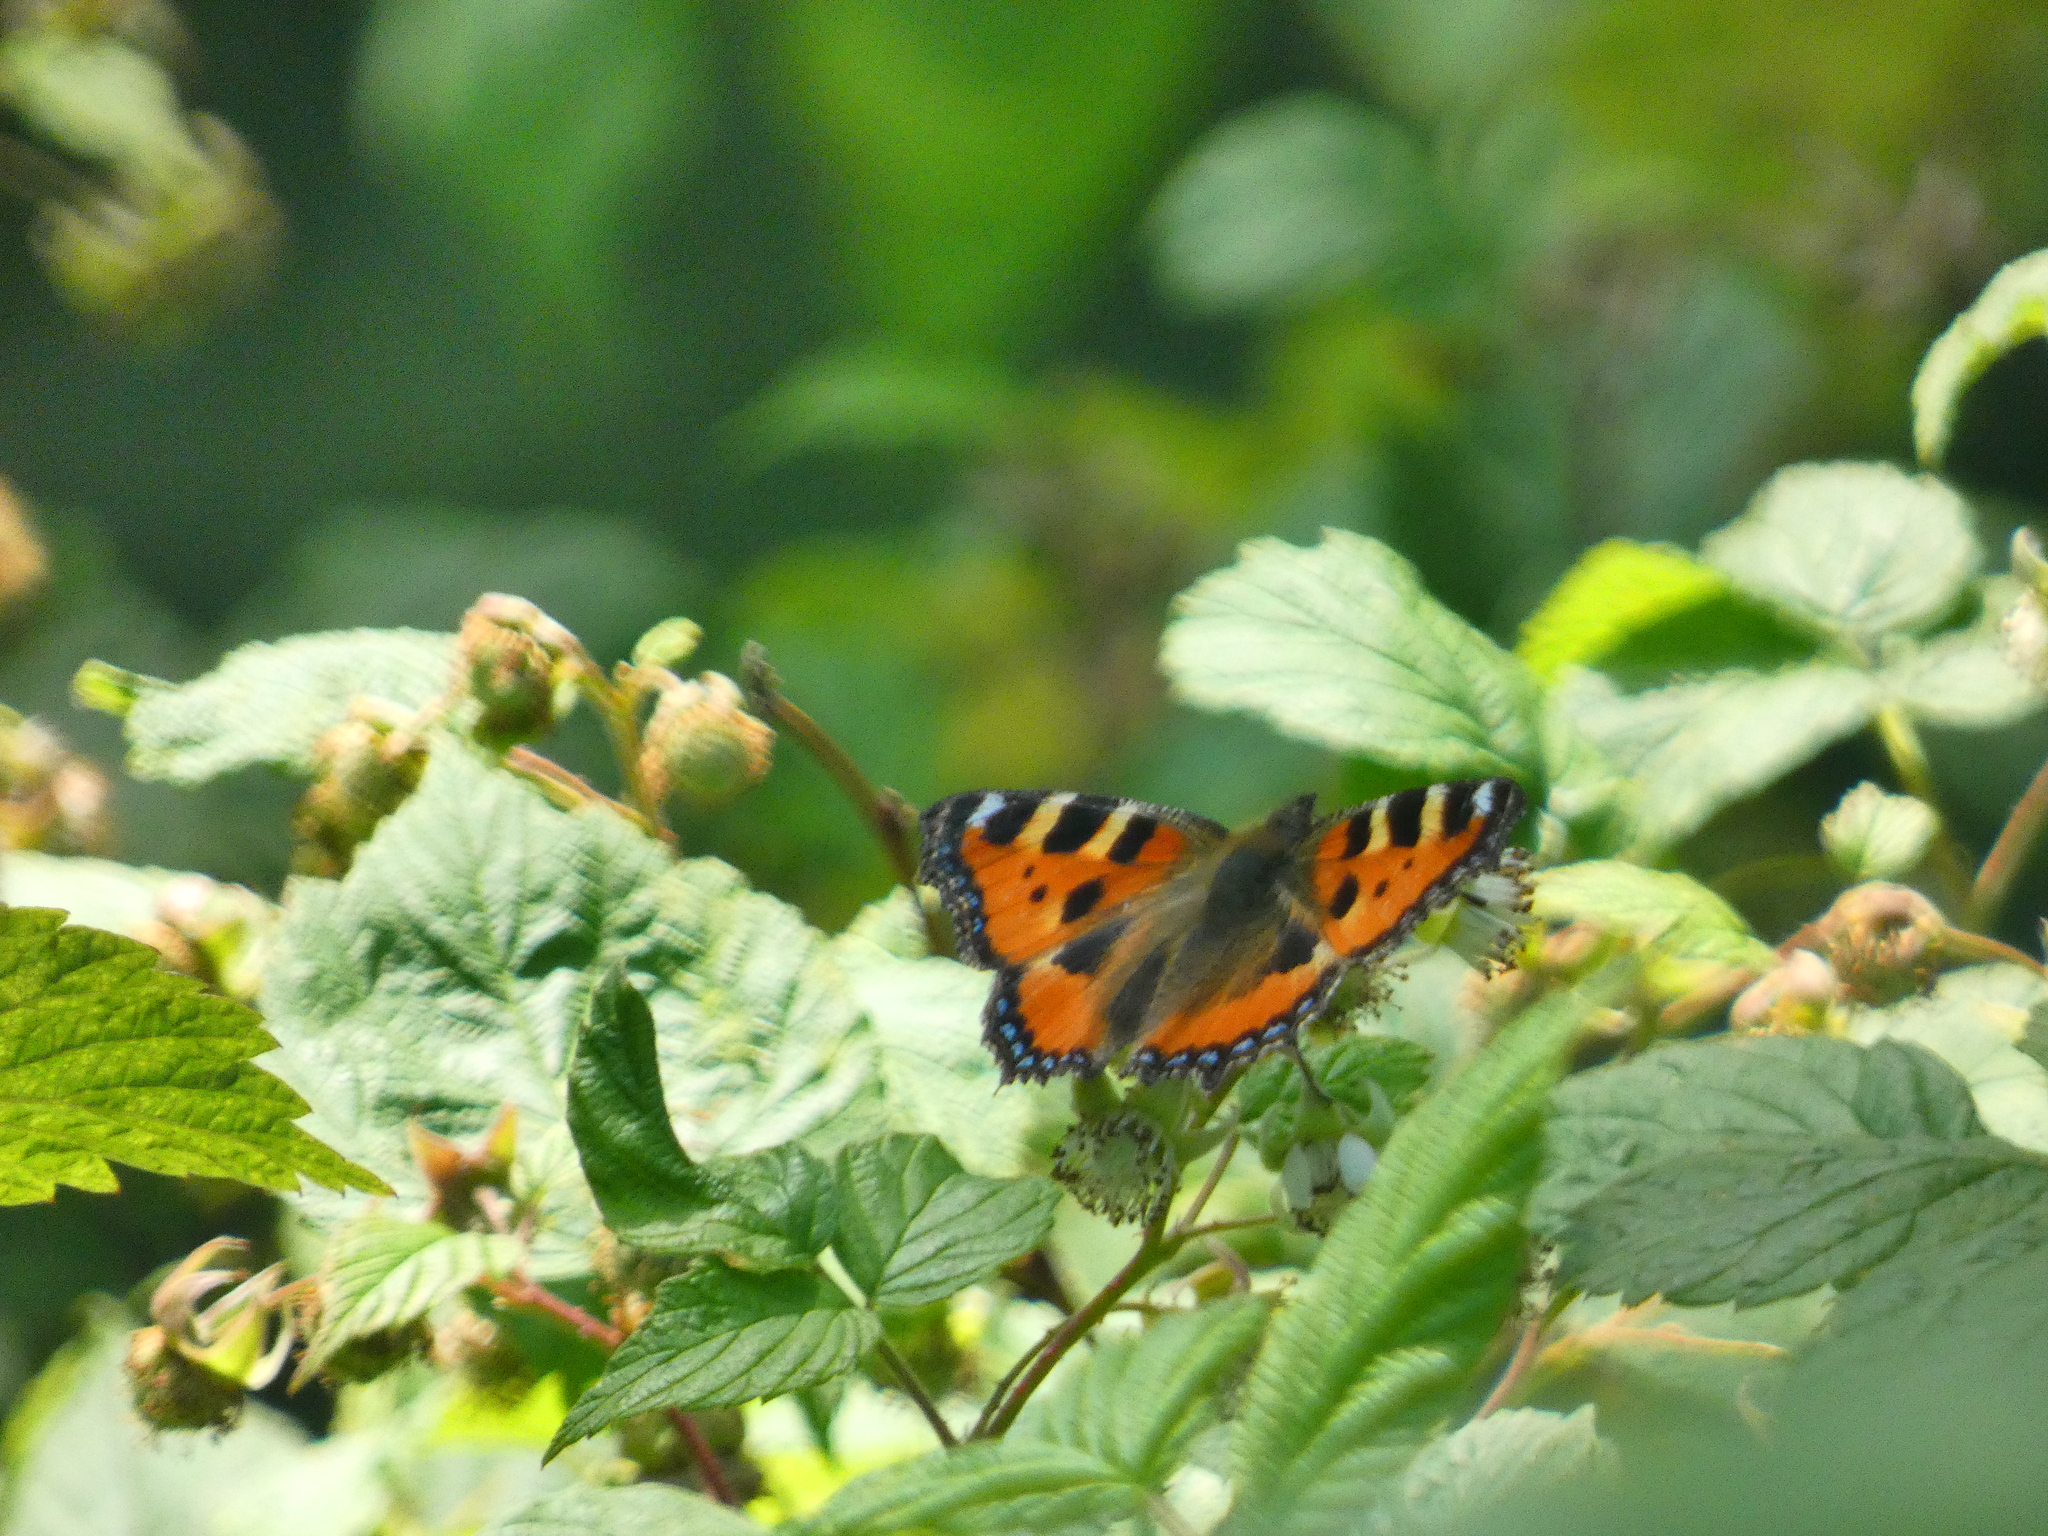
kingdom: Animalia
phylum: Arthropoda
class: Insecta
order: Lepidoptera
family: Nymphalidae
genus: Aglais
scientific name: Aglais urticae
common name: Small tortoiseshell
